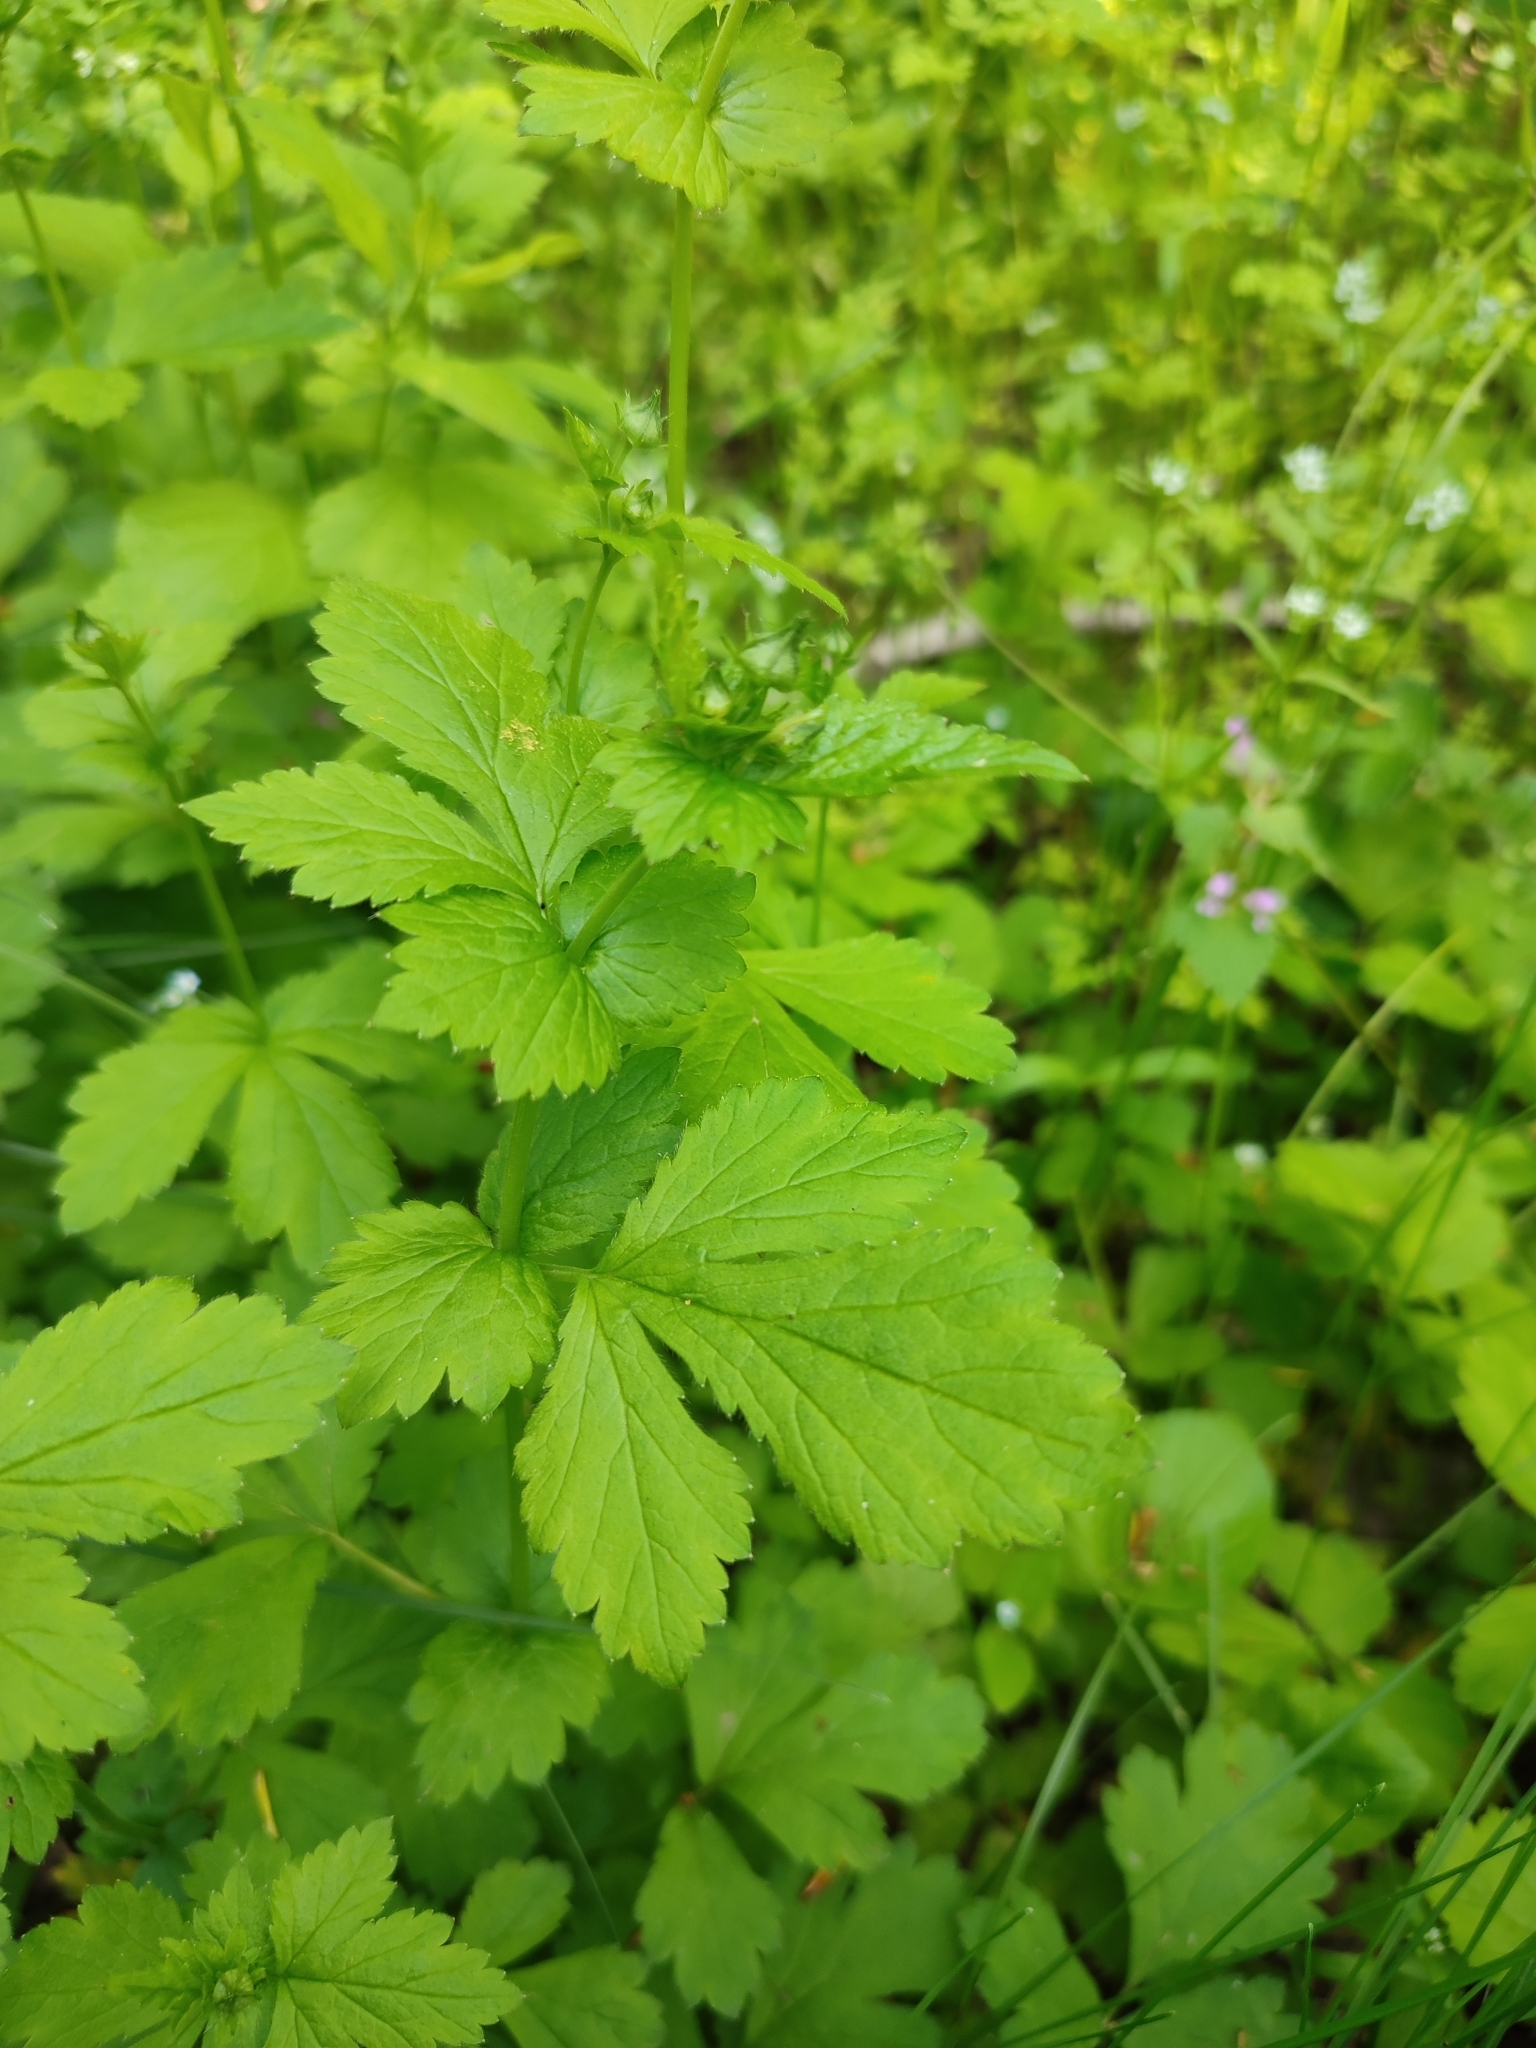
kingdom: Plantae
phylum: Tracheophyta
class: Magnoliopsida
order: Rosales
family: Rosaceae
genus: Geum
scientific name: Geum urbanum
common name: Wood avens
